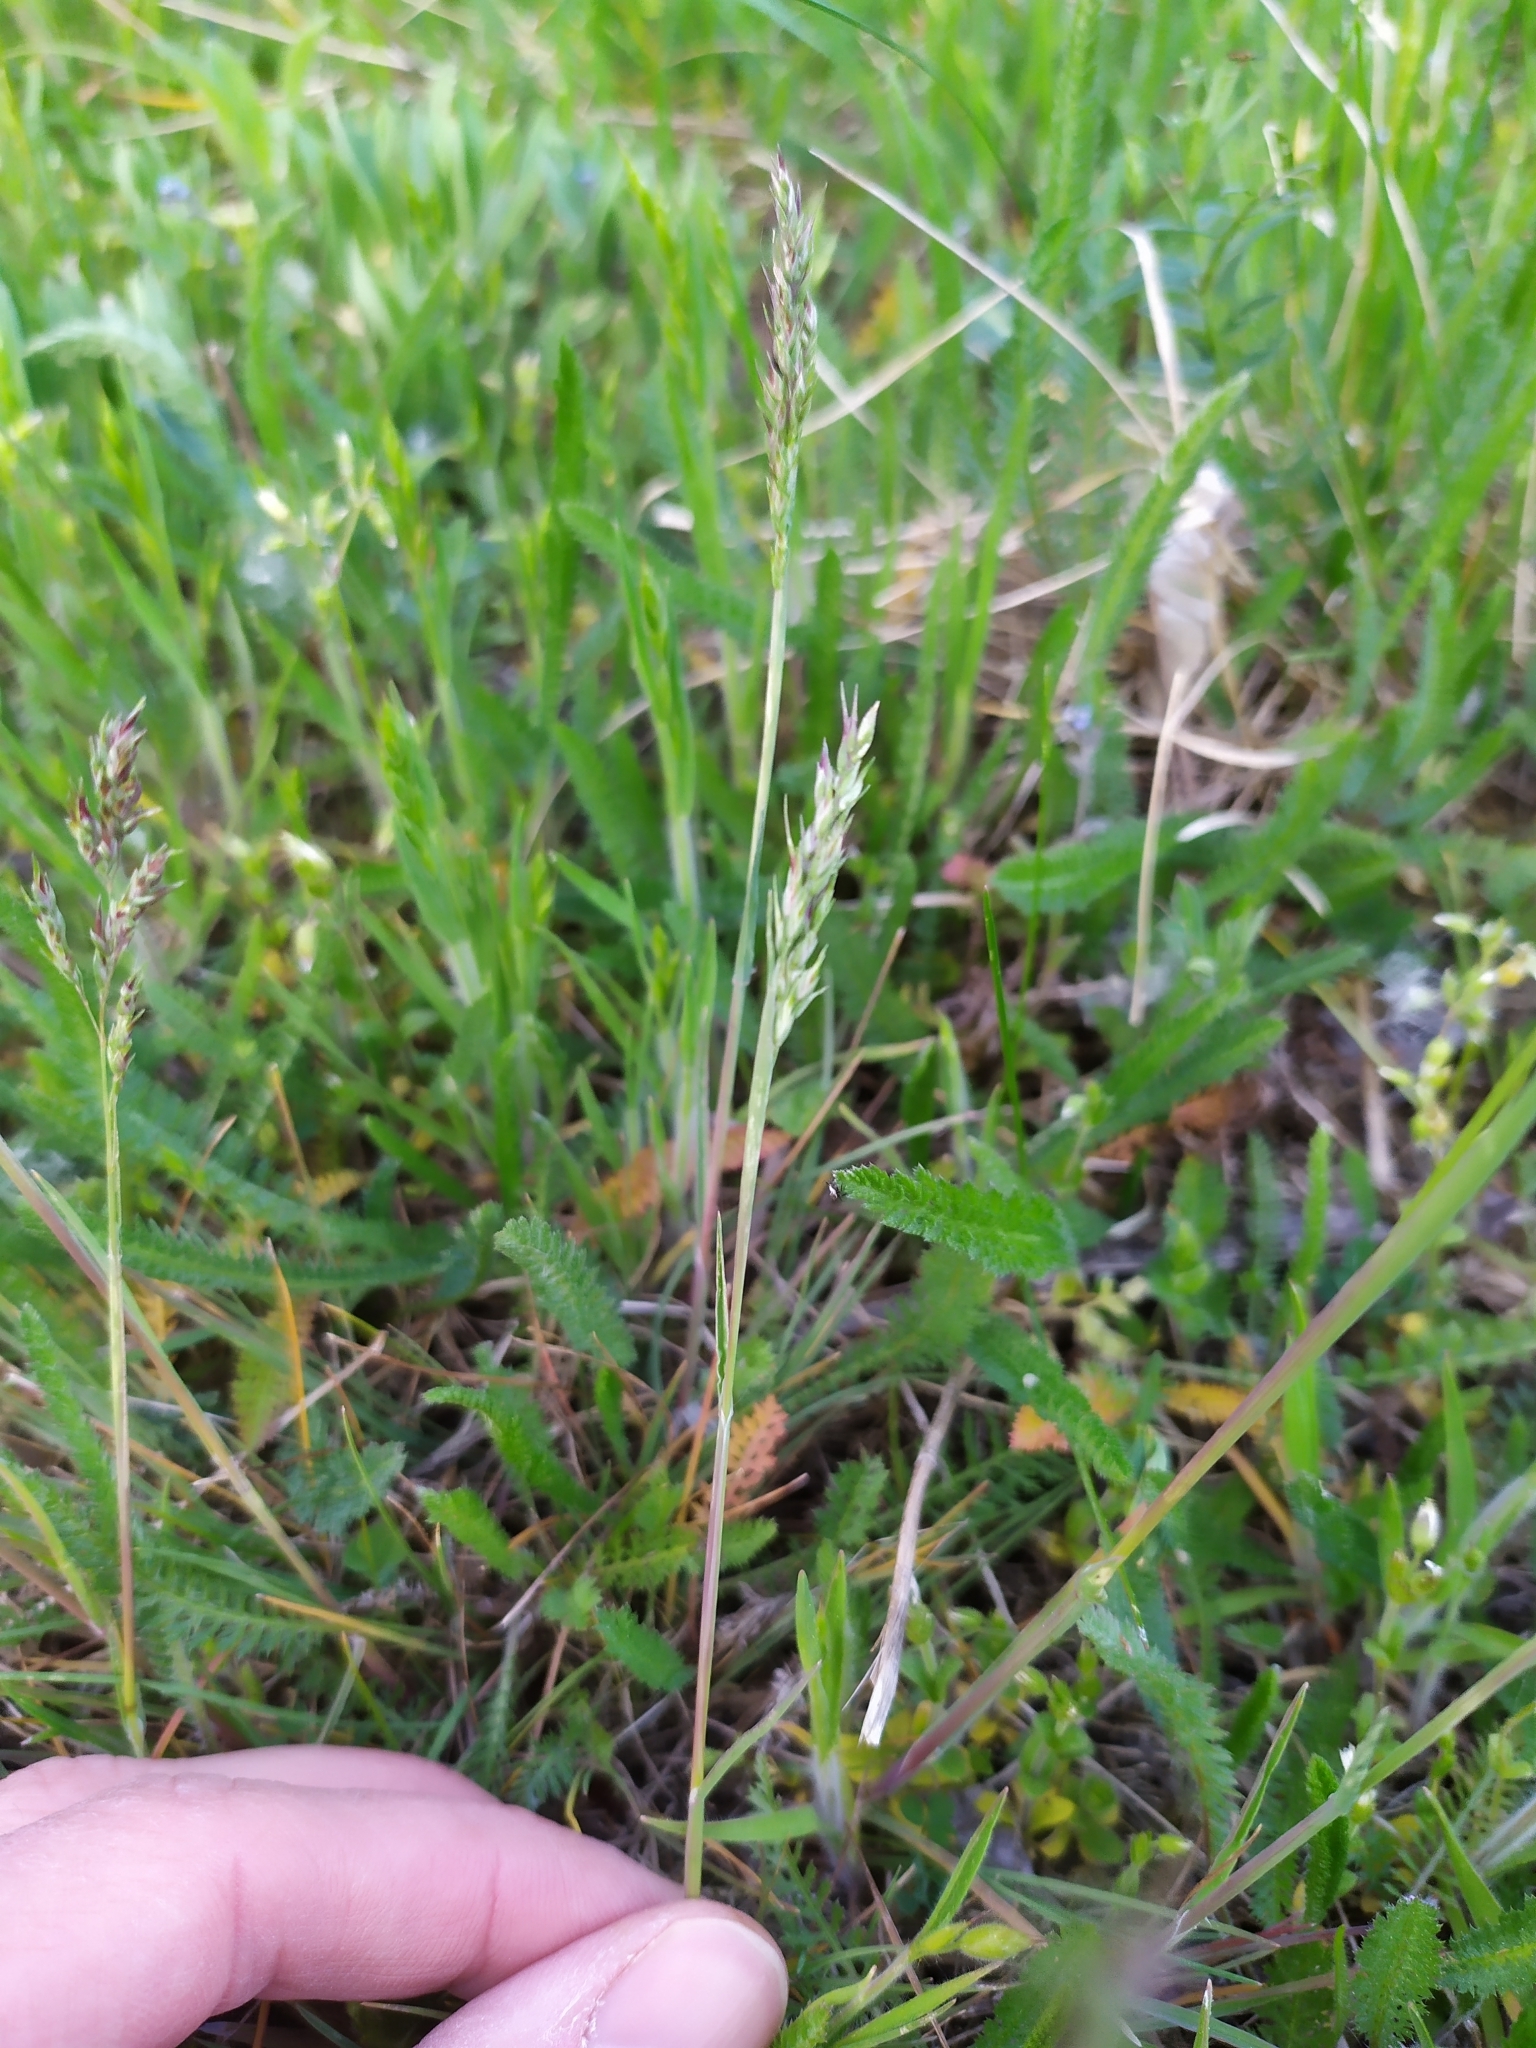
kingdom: Plantae
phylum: Tracheophyta
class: Liliopsida
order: Poales
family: Poaceae
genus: Poa
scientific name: Poa bulbosa
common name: Bulbous bluegrass
